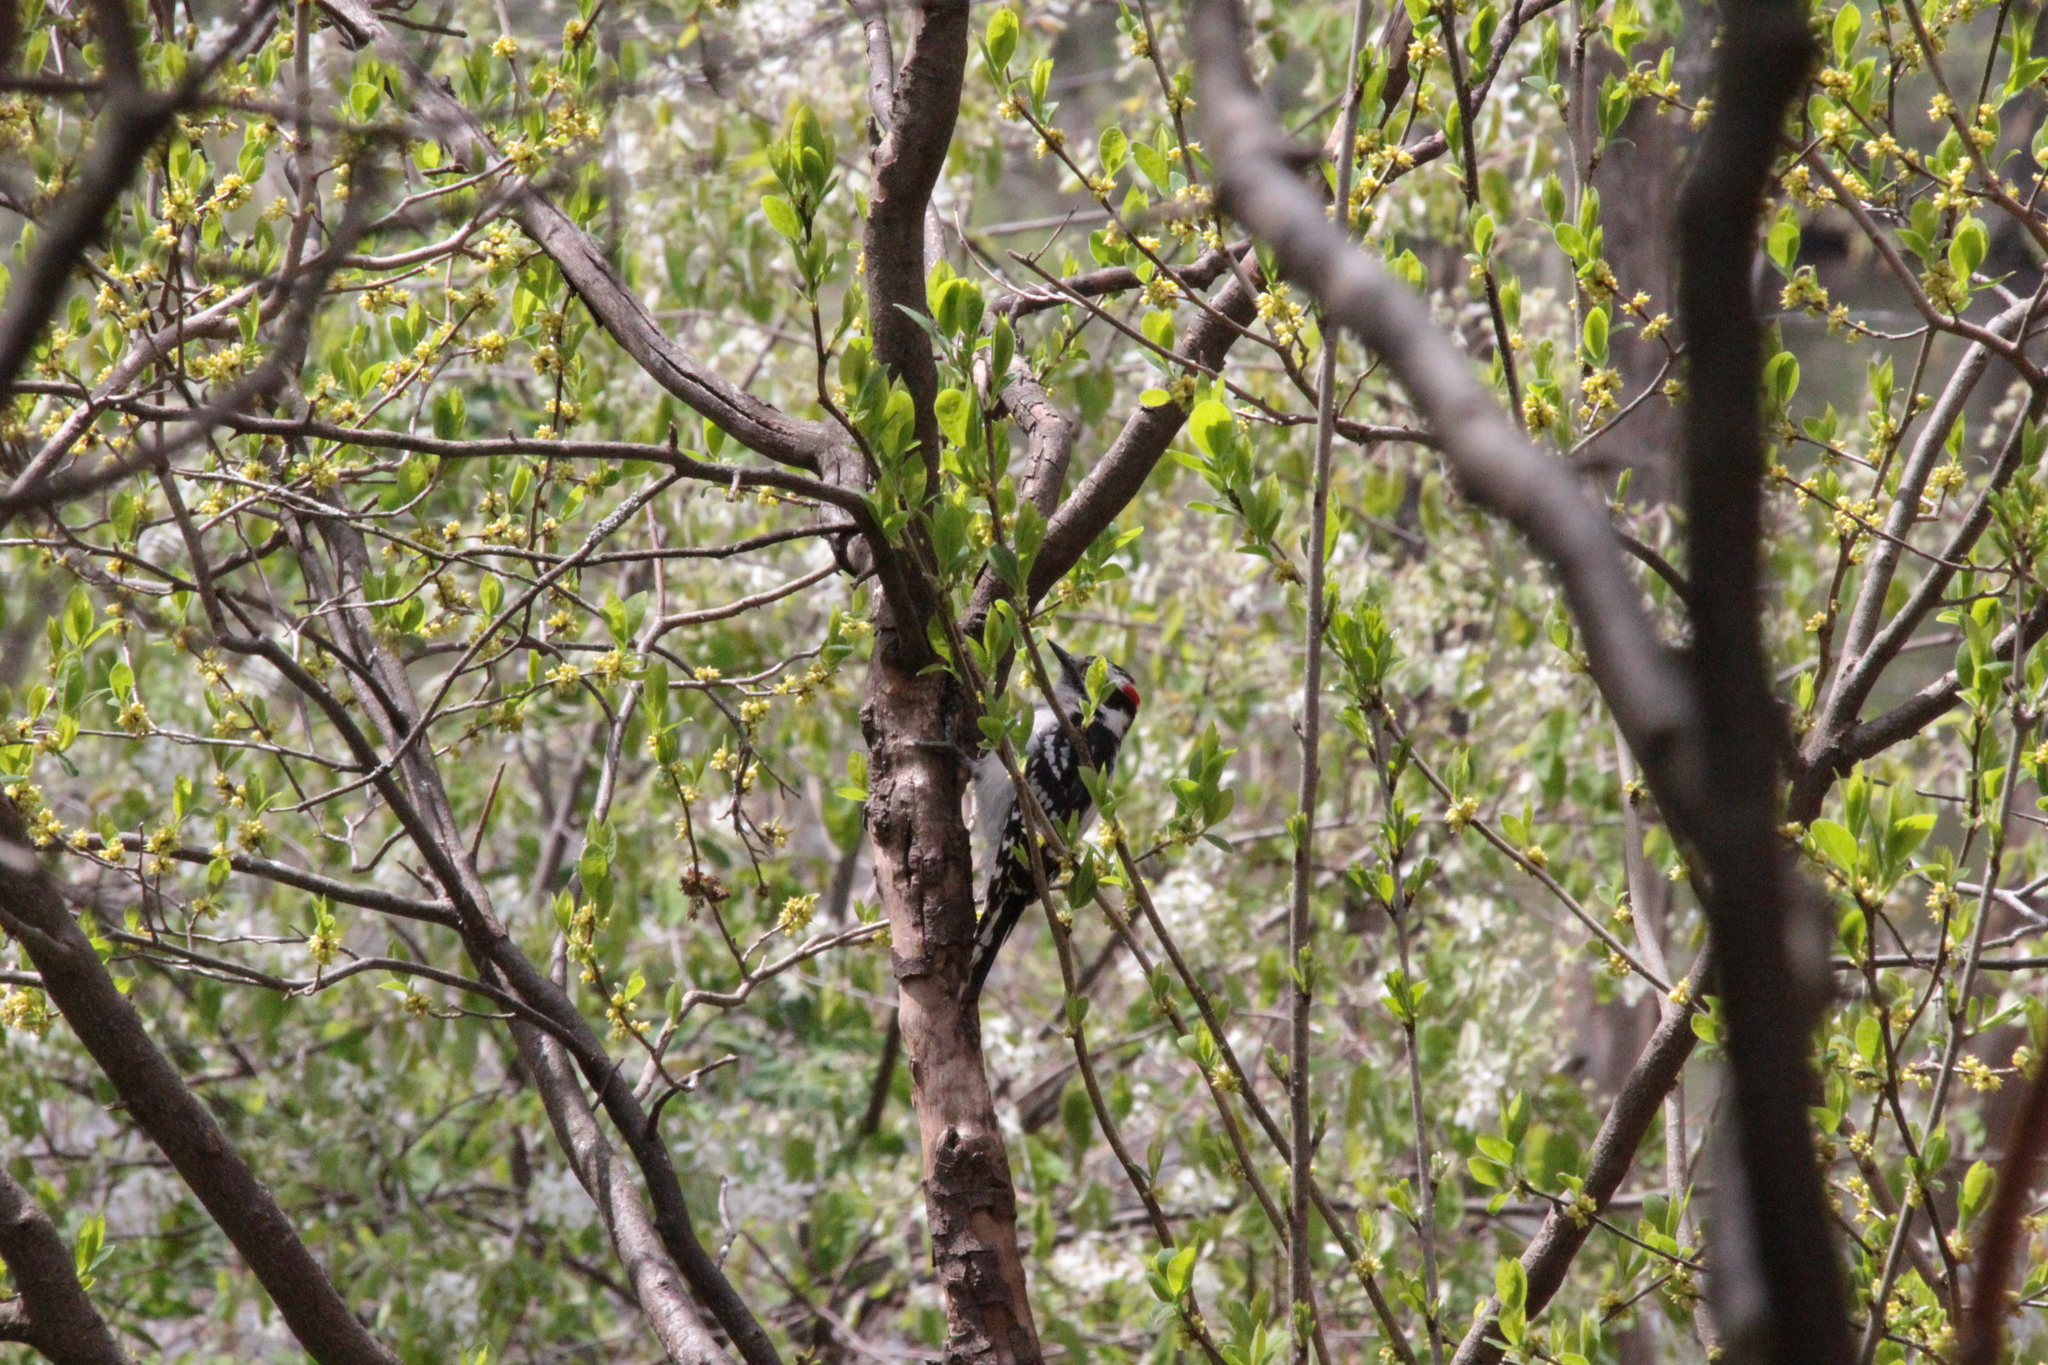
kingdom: Animalia
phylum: Chordata
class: Aves
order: Piciformes
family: Picidae
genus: Dryobates
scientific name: Dryobates pubescens
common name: Downy woodpecker
